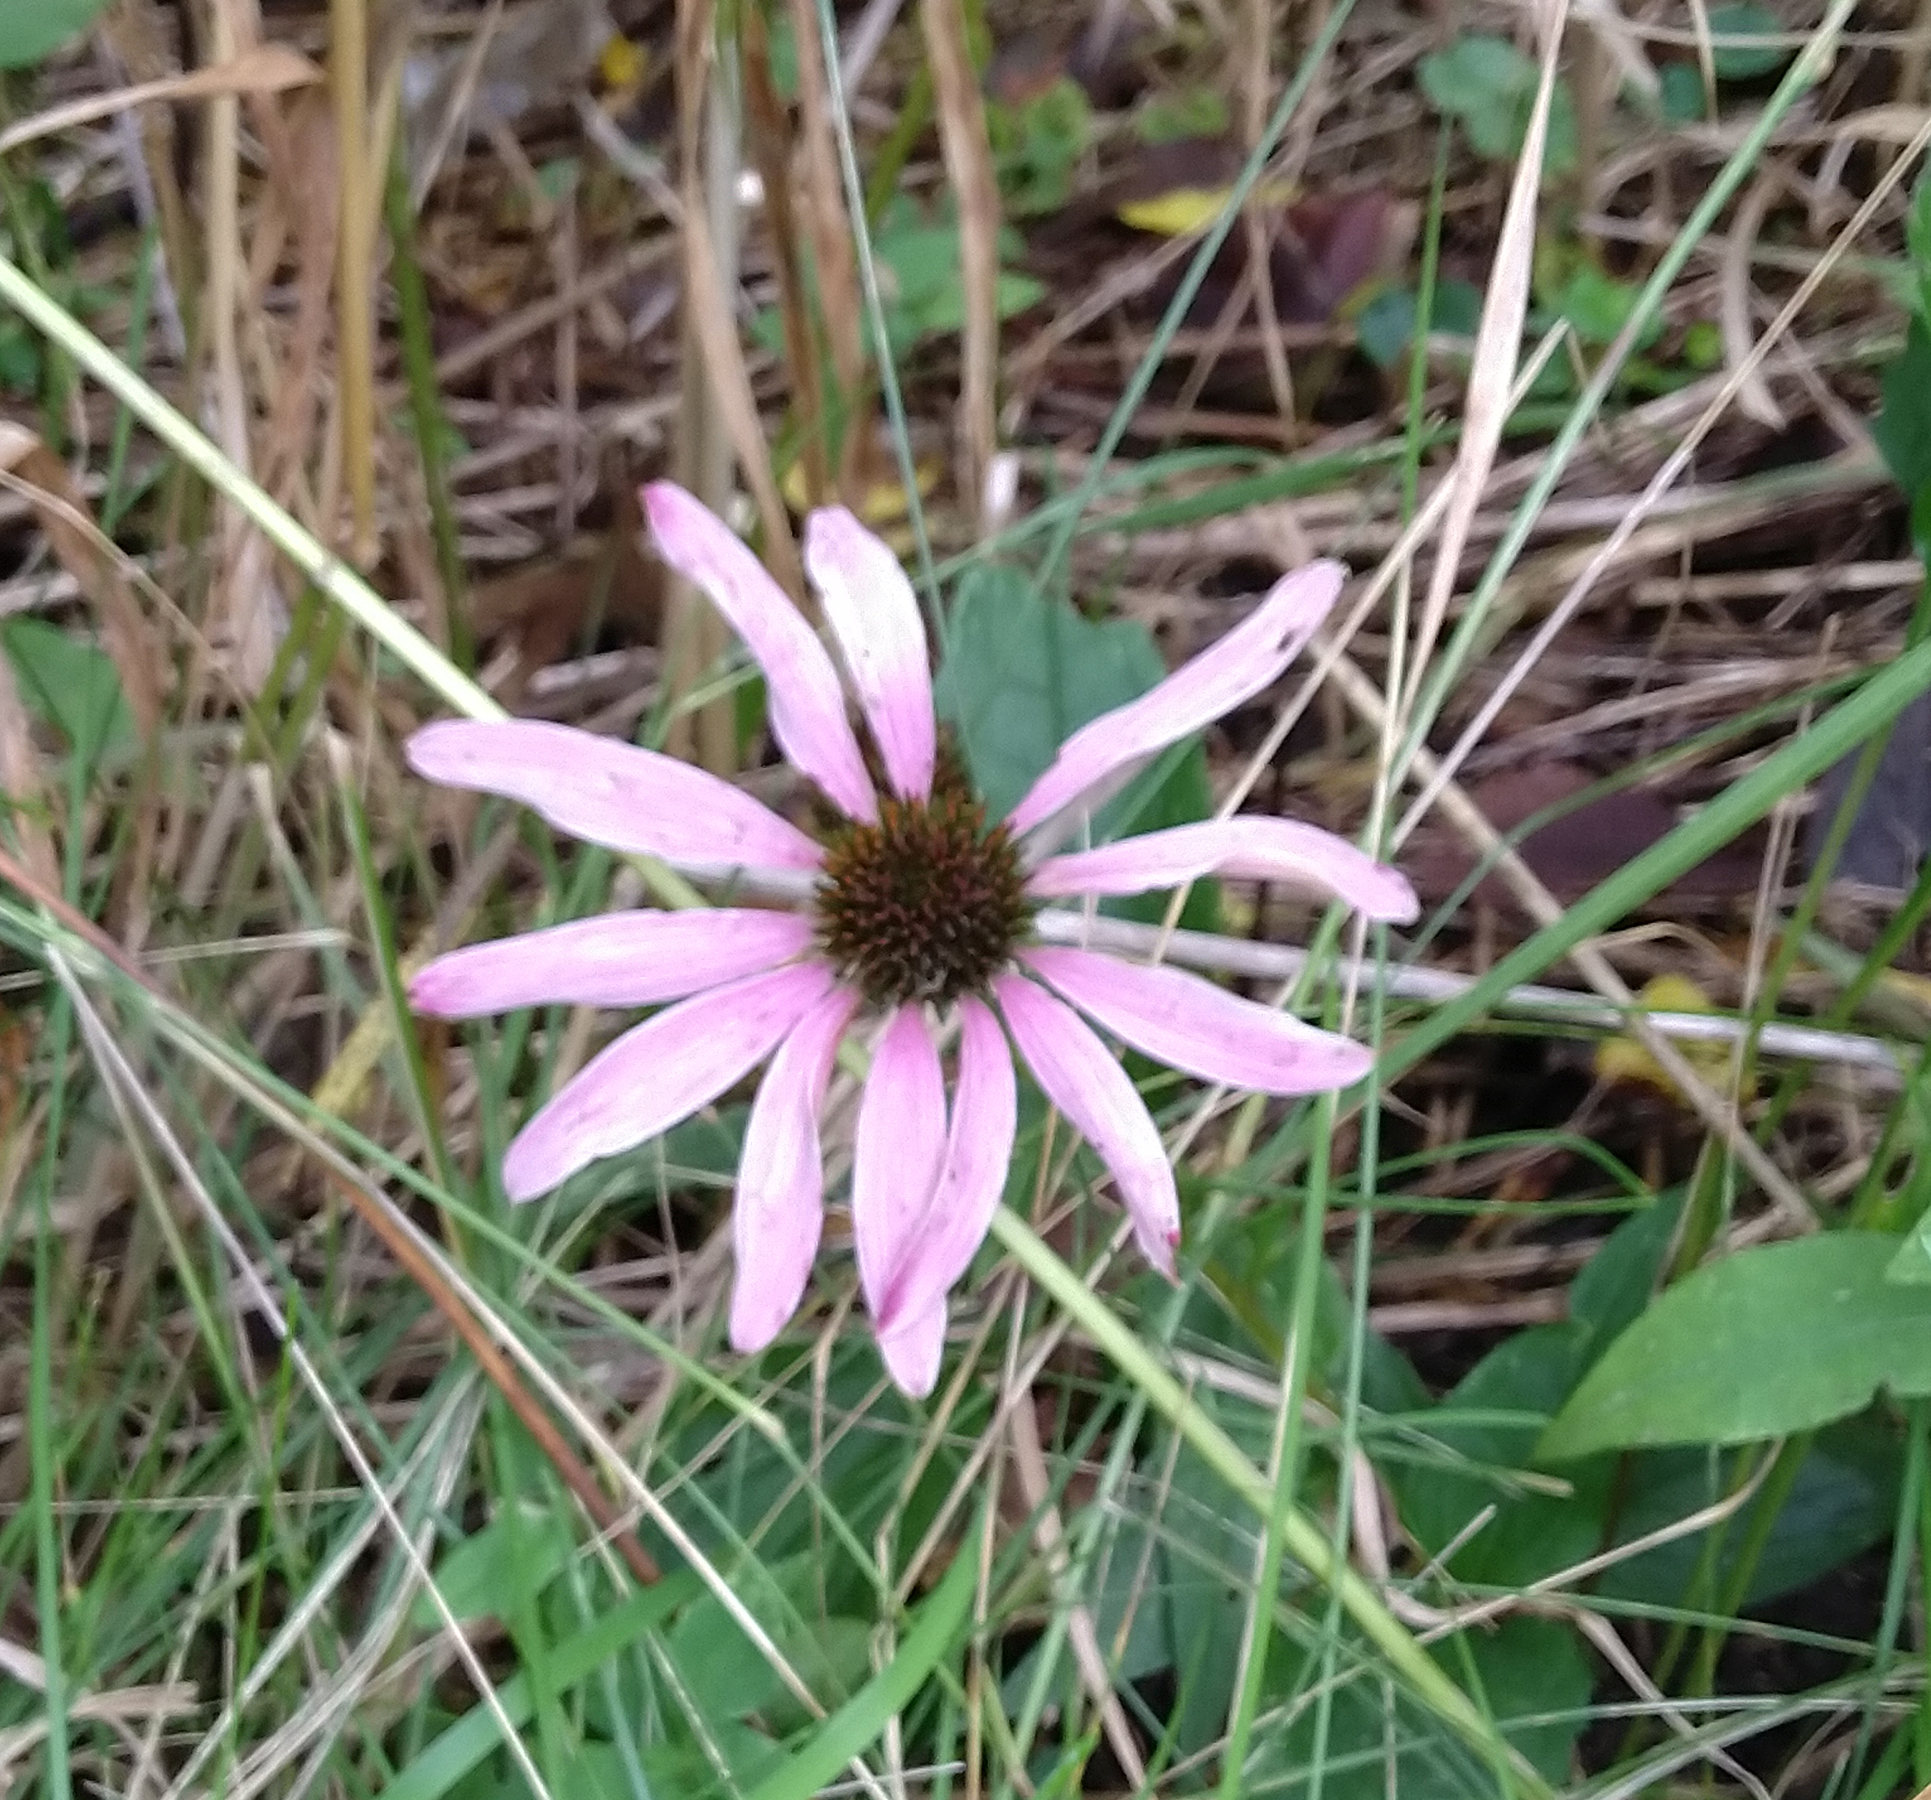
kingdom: Plantae
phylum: Tracheophyta
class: Magnoliopsida
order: Asterales
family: Asteraceae
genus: Echinacea
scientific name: Echinacea purpurea
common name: Broad-leaved purple coneflower
